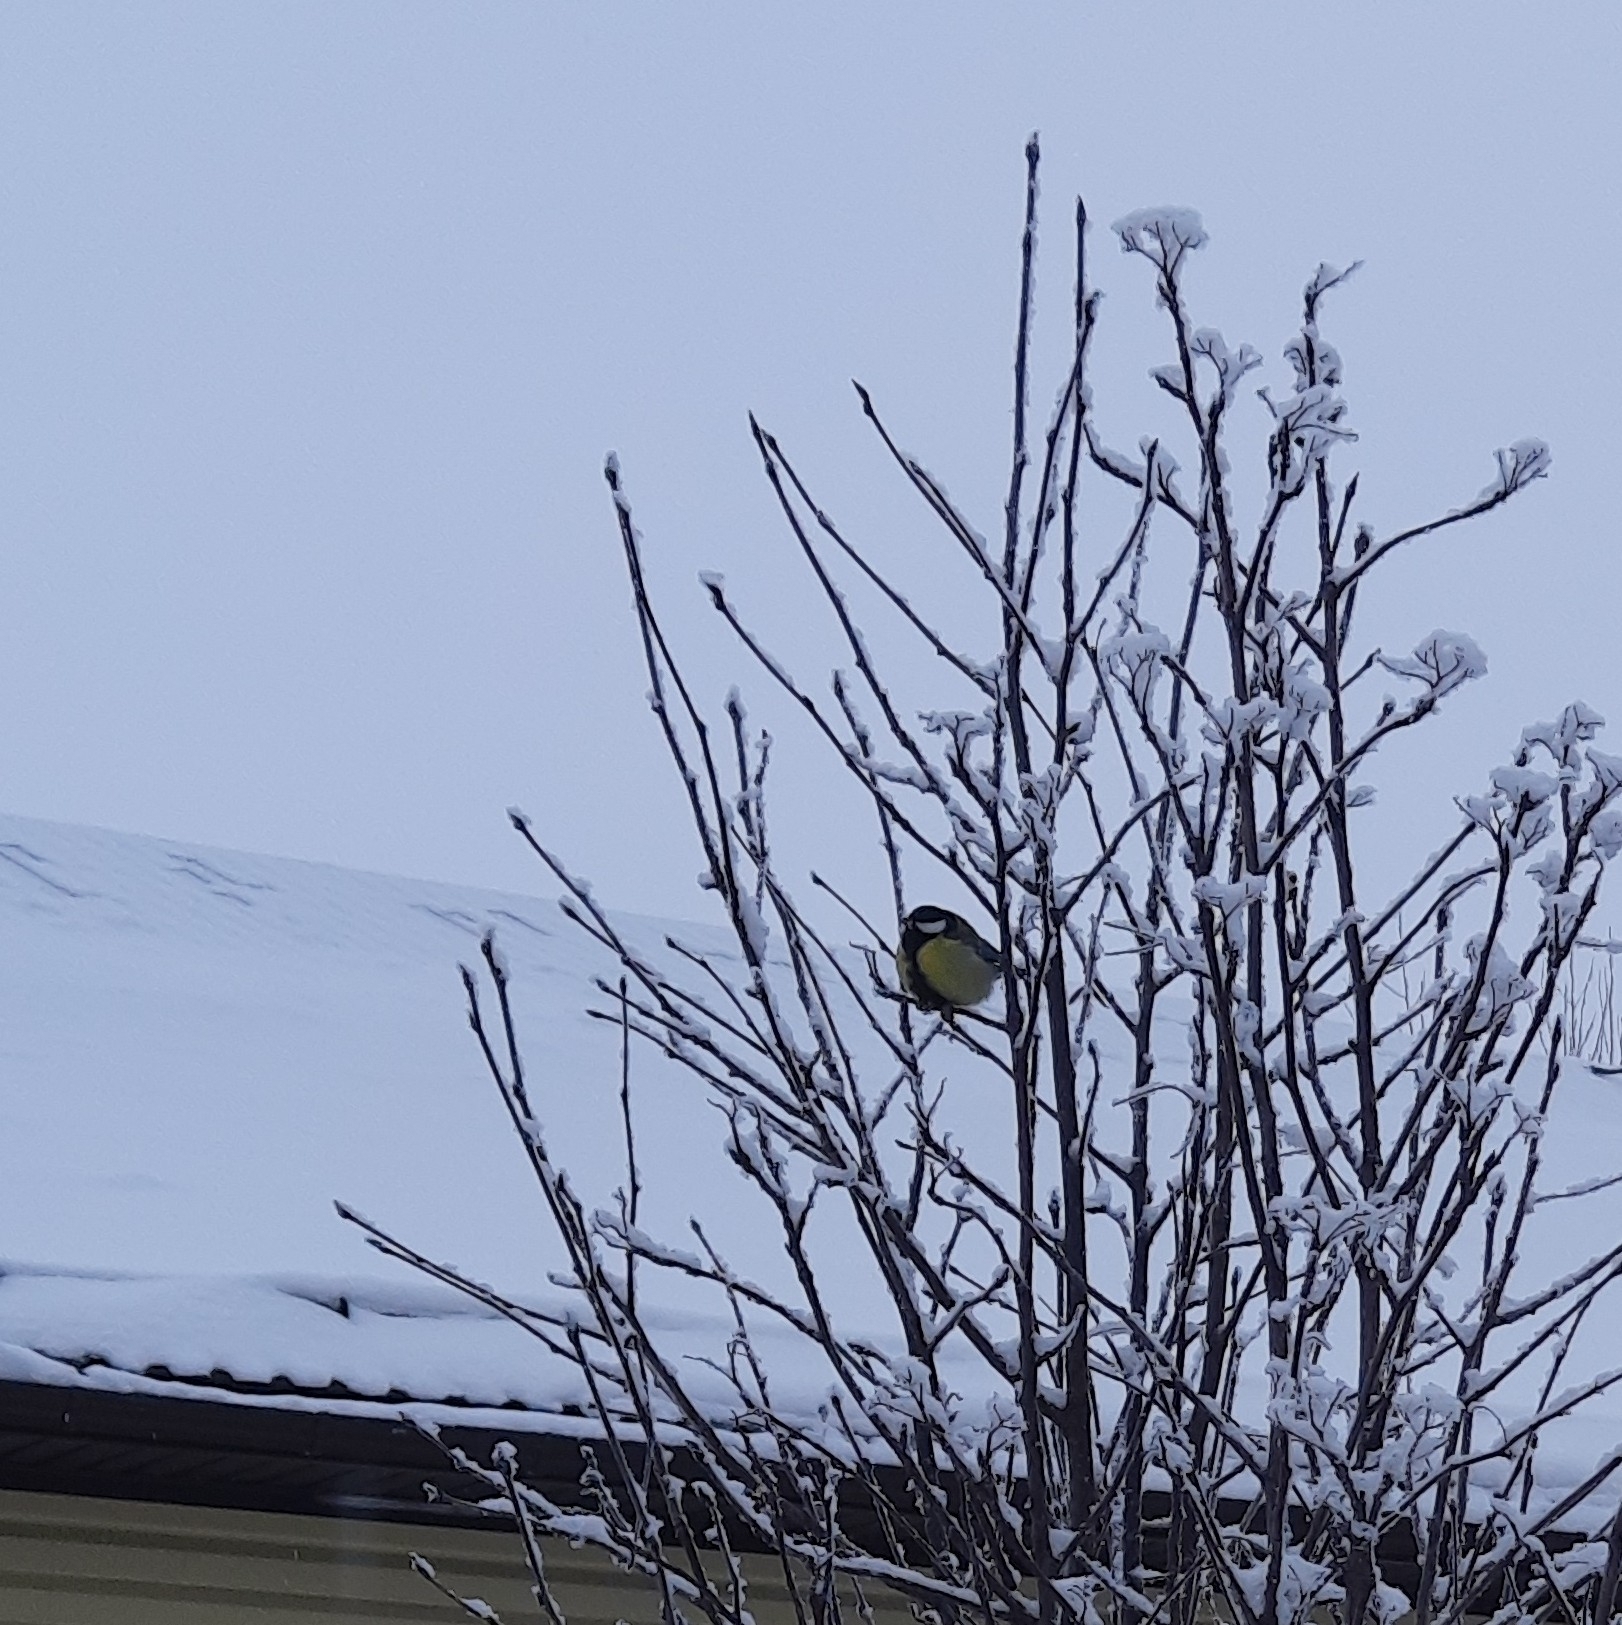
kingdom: Animalia
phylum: Chordata
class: Aves
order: Passeriformes
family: Paridae
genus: Parus
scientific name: Parus major
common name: Great tit
